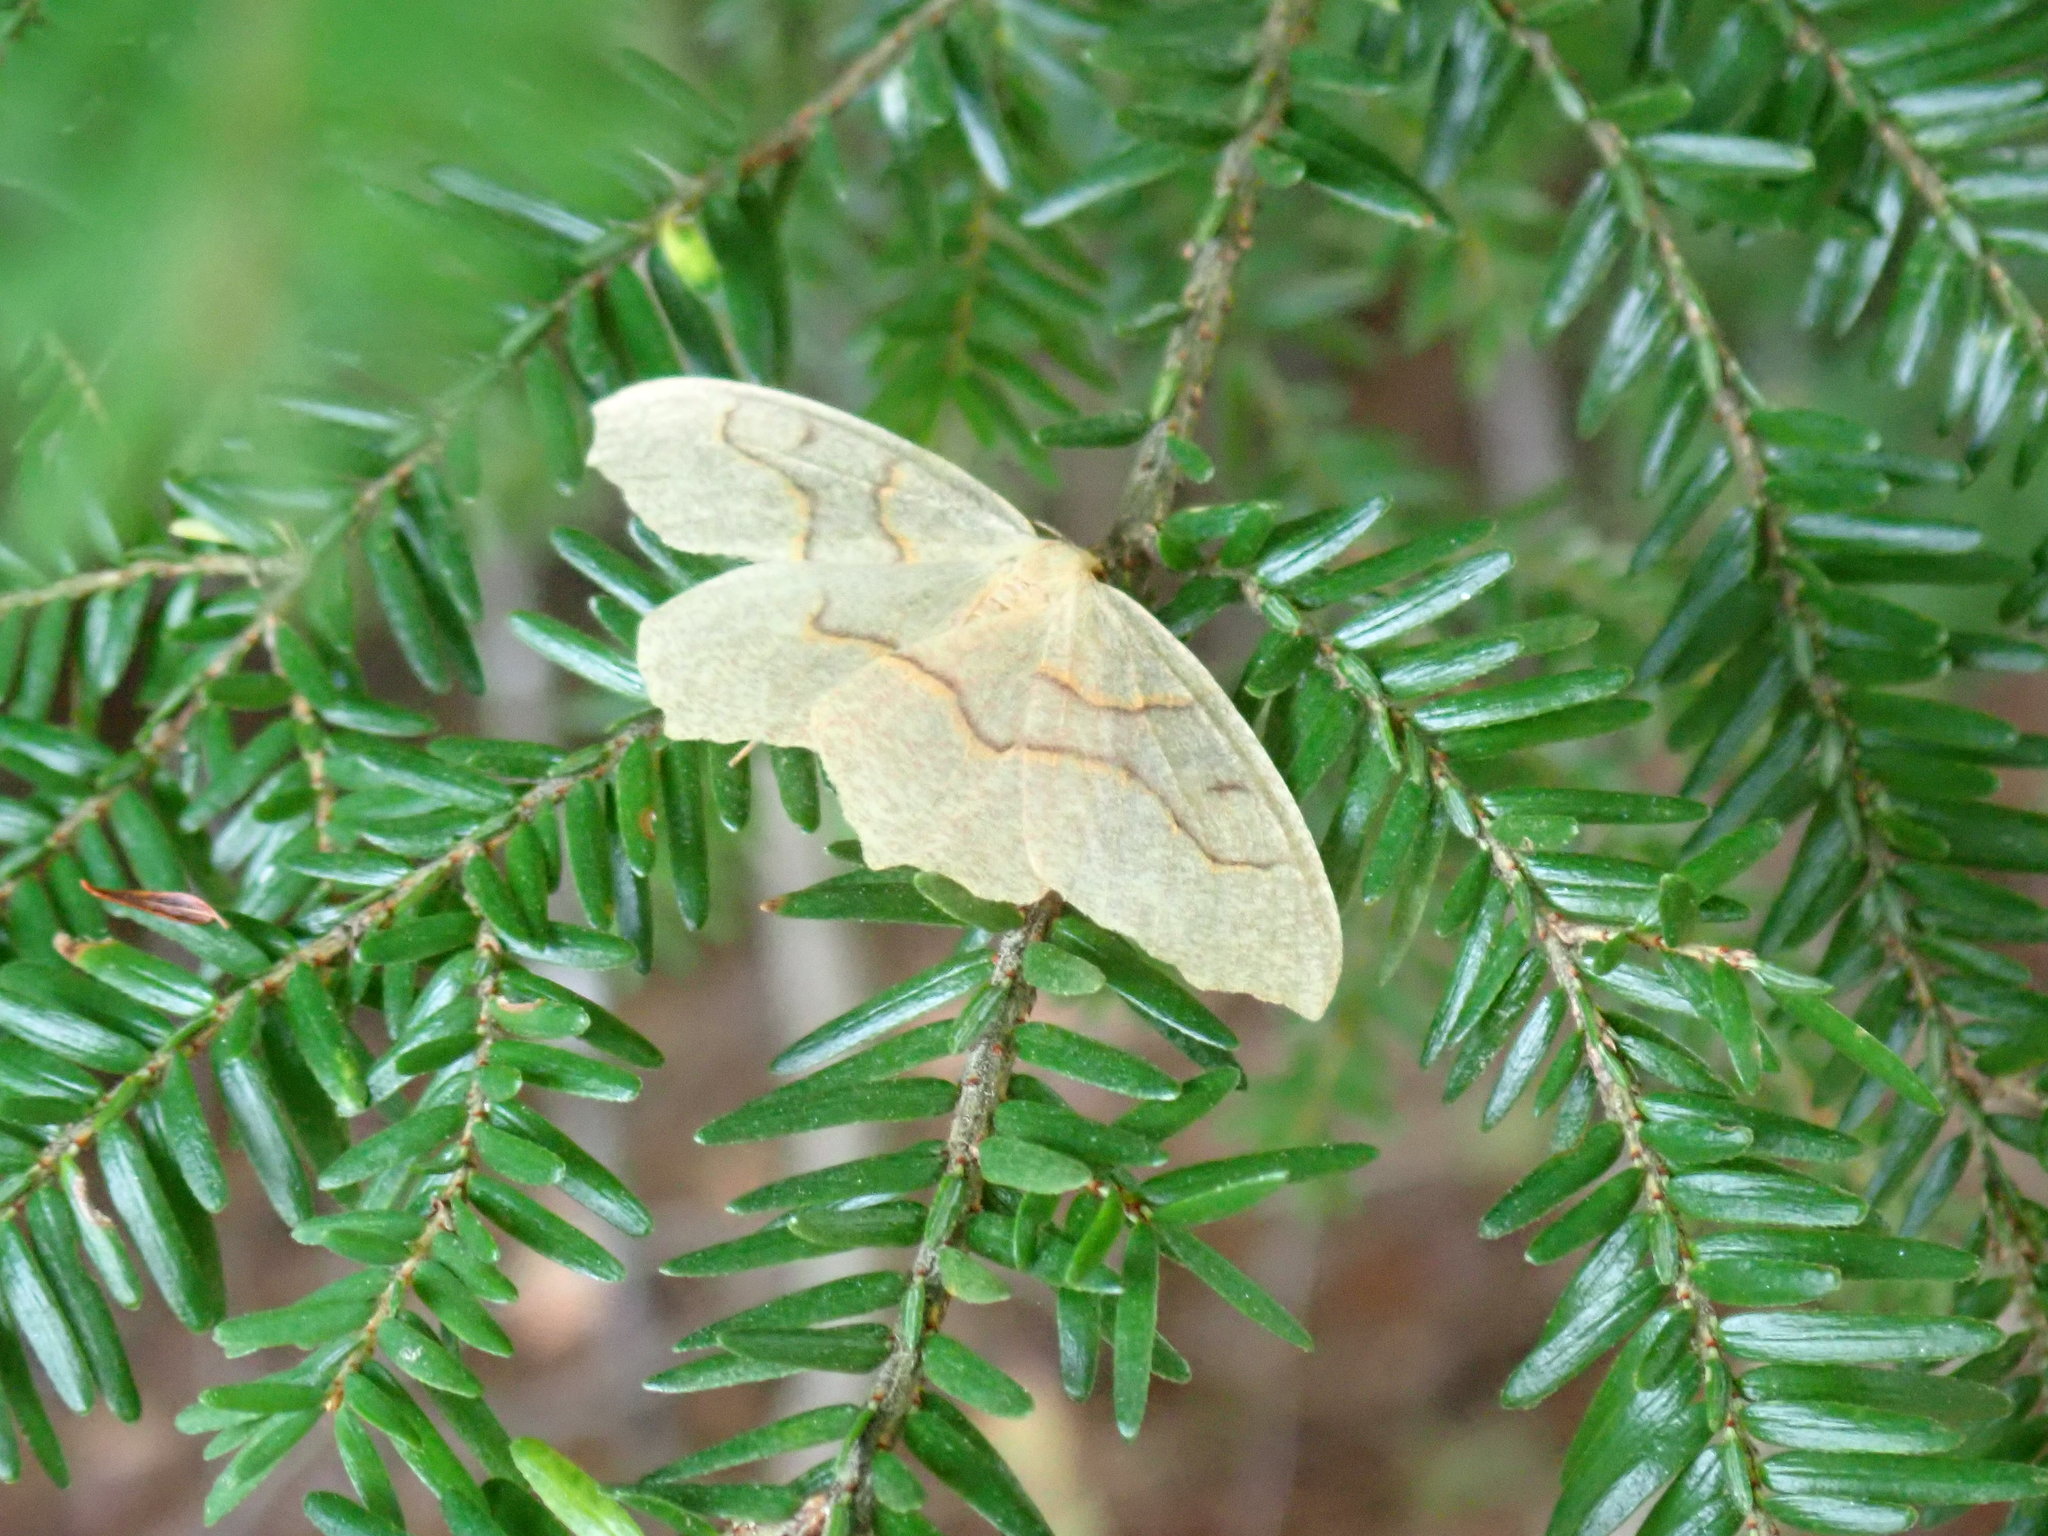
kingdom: Animalia
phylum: Arthropoda
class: Insecta
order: Lepidoptera
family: Geometridae
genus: Lambdina
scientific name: Lambdina fiscellaria
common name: Hemlock looper
